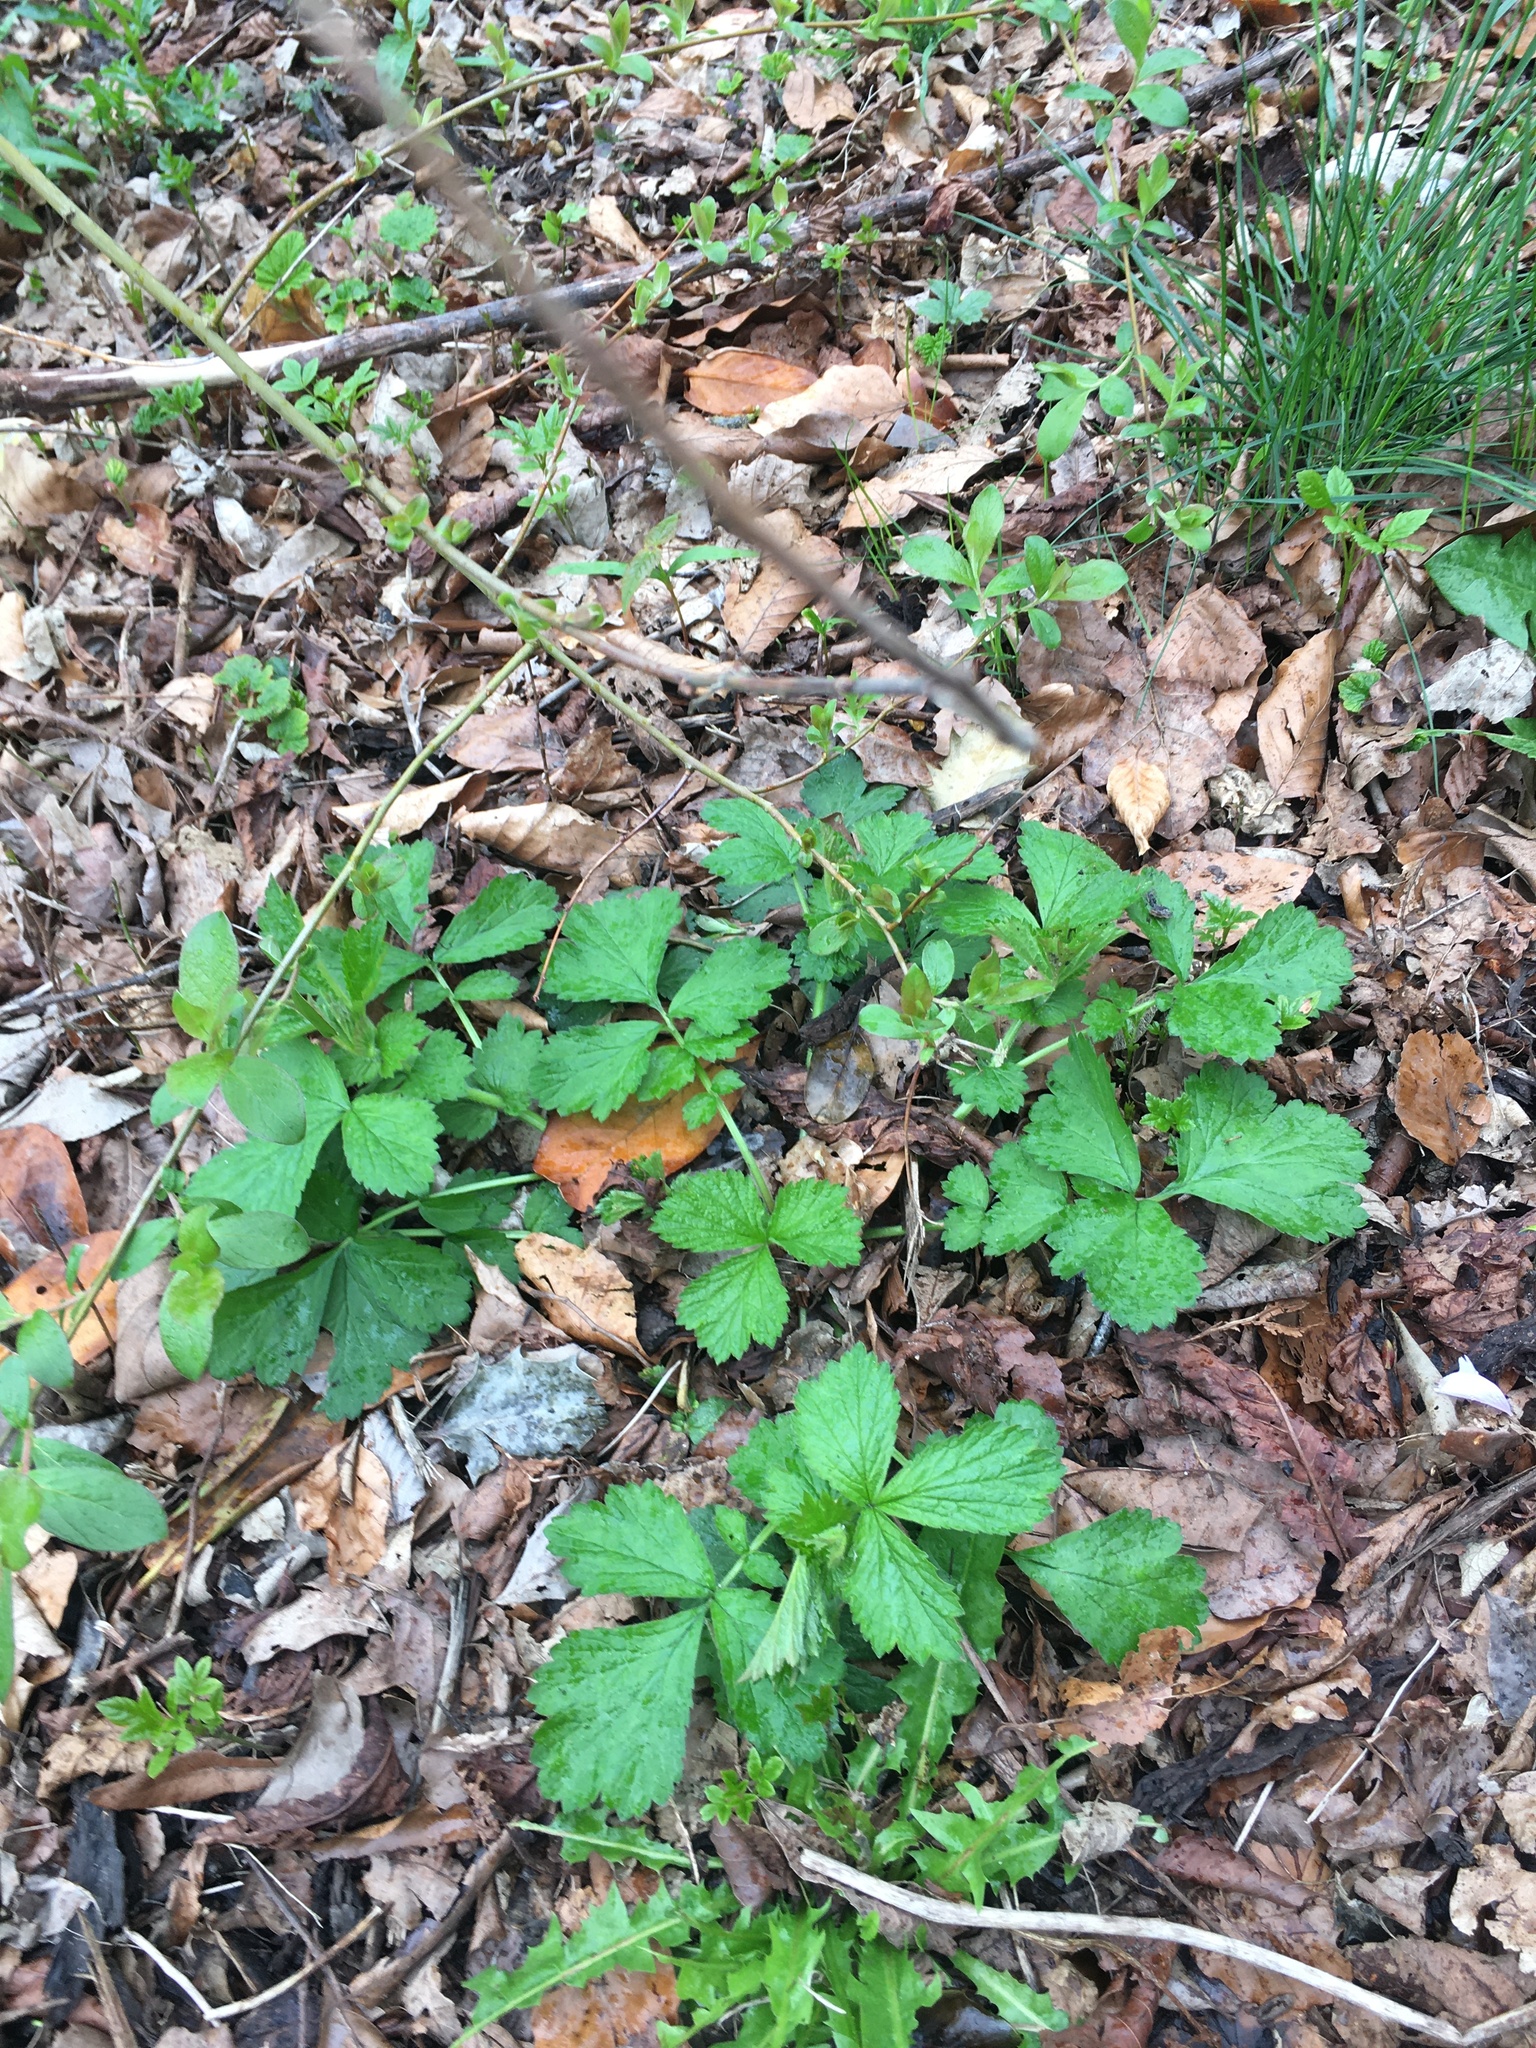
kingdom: Plantae
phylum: Tracheophyta
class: Magnoliopsida
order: Rosales
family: Rosaceae
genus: Geum
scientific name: Geum urbanum
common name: Wood avens
